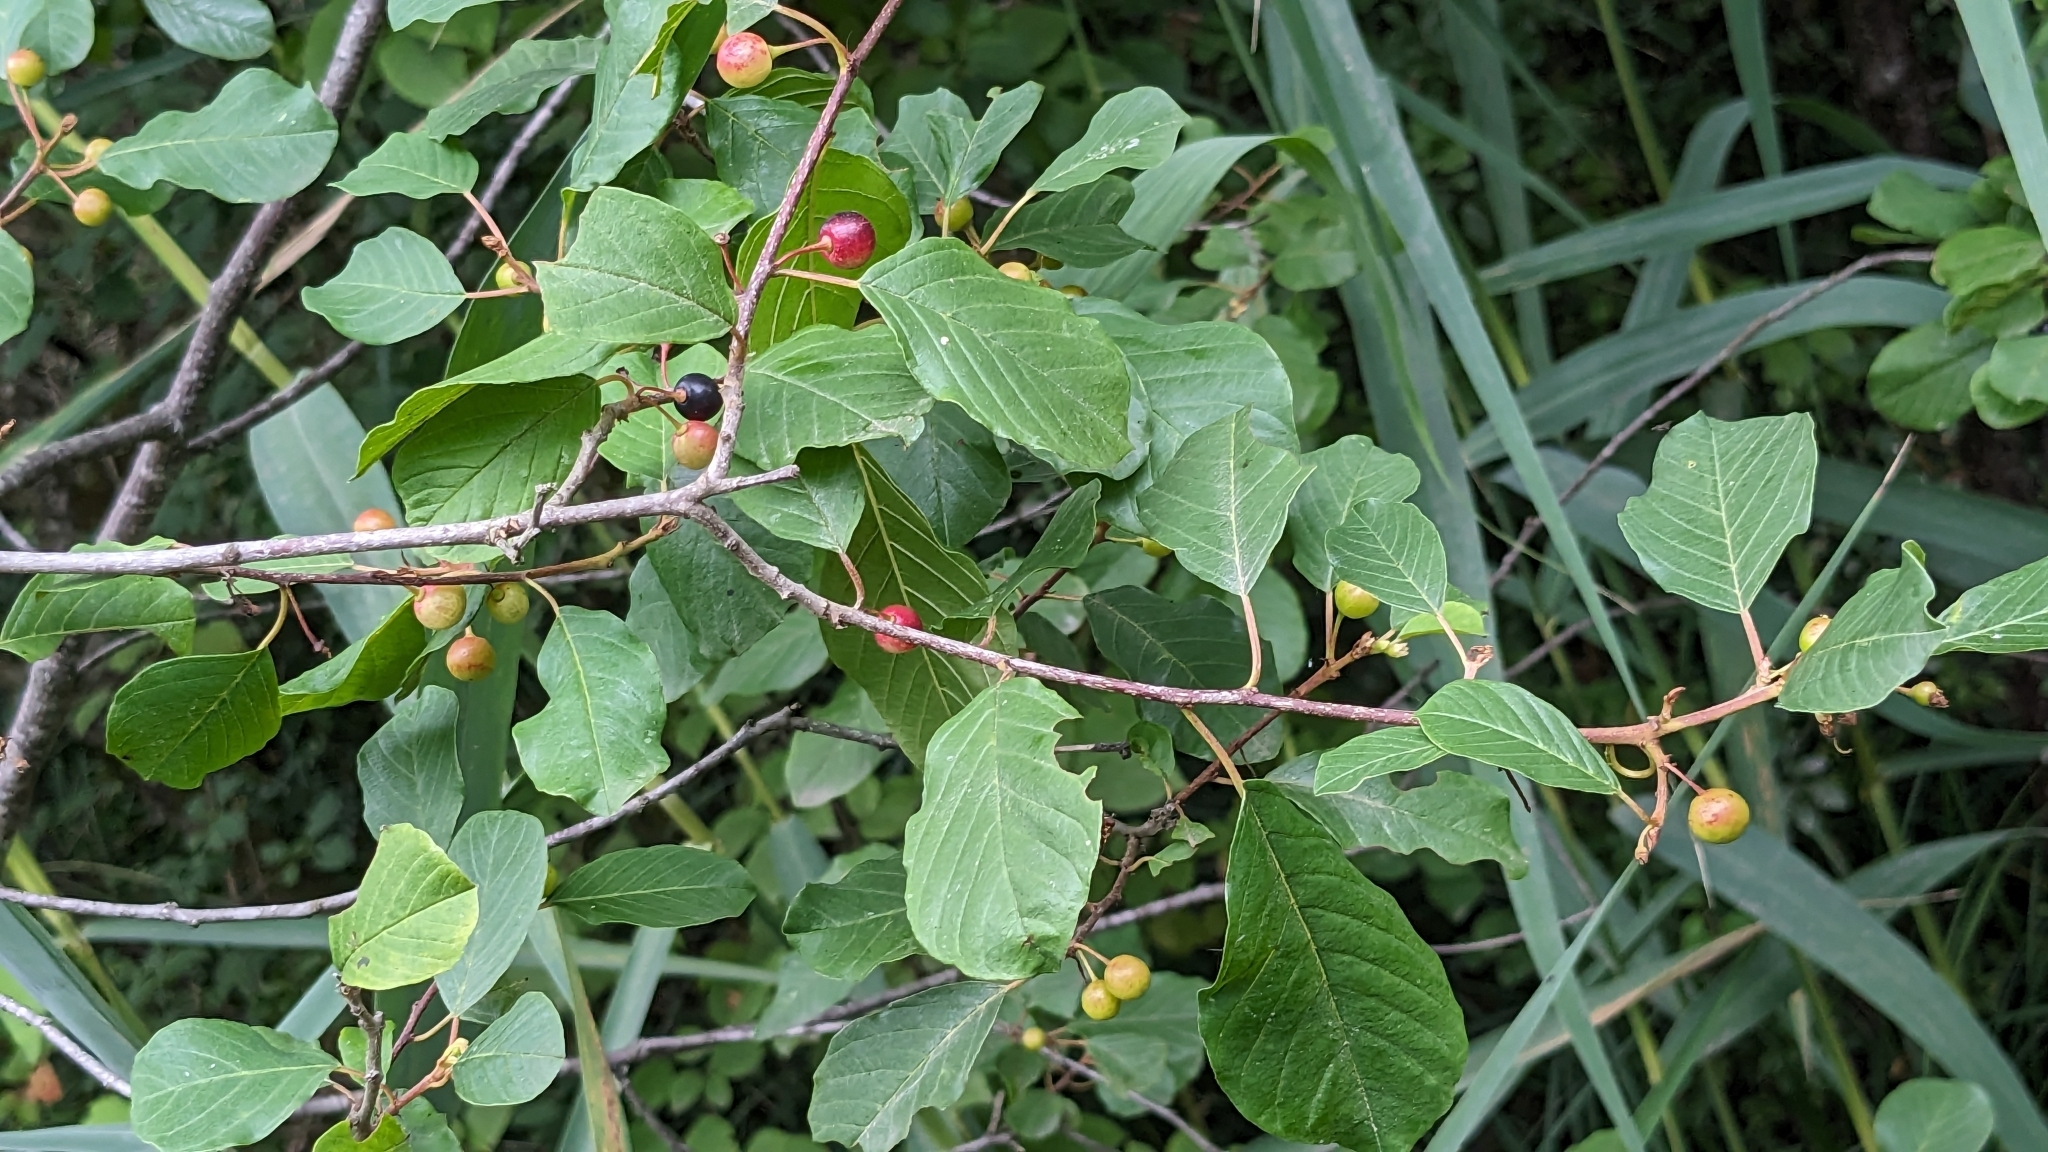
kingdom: Plantae
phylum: Tracheophyta
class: Magnoliopsida
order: Rosales
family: Rhamnaceae
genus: Frangula
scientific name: Frangula alnus
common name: Alder buckthorn
